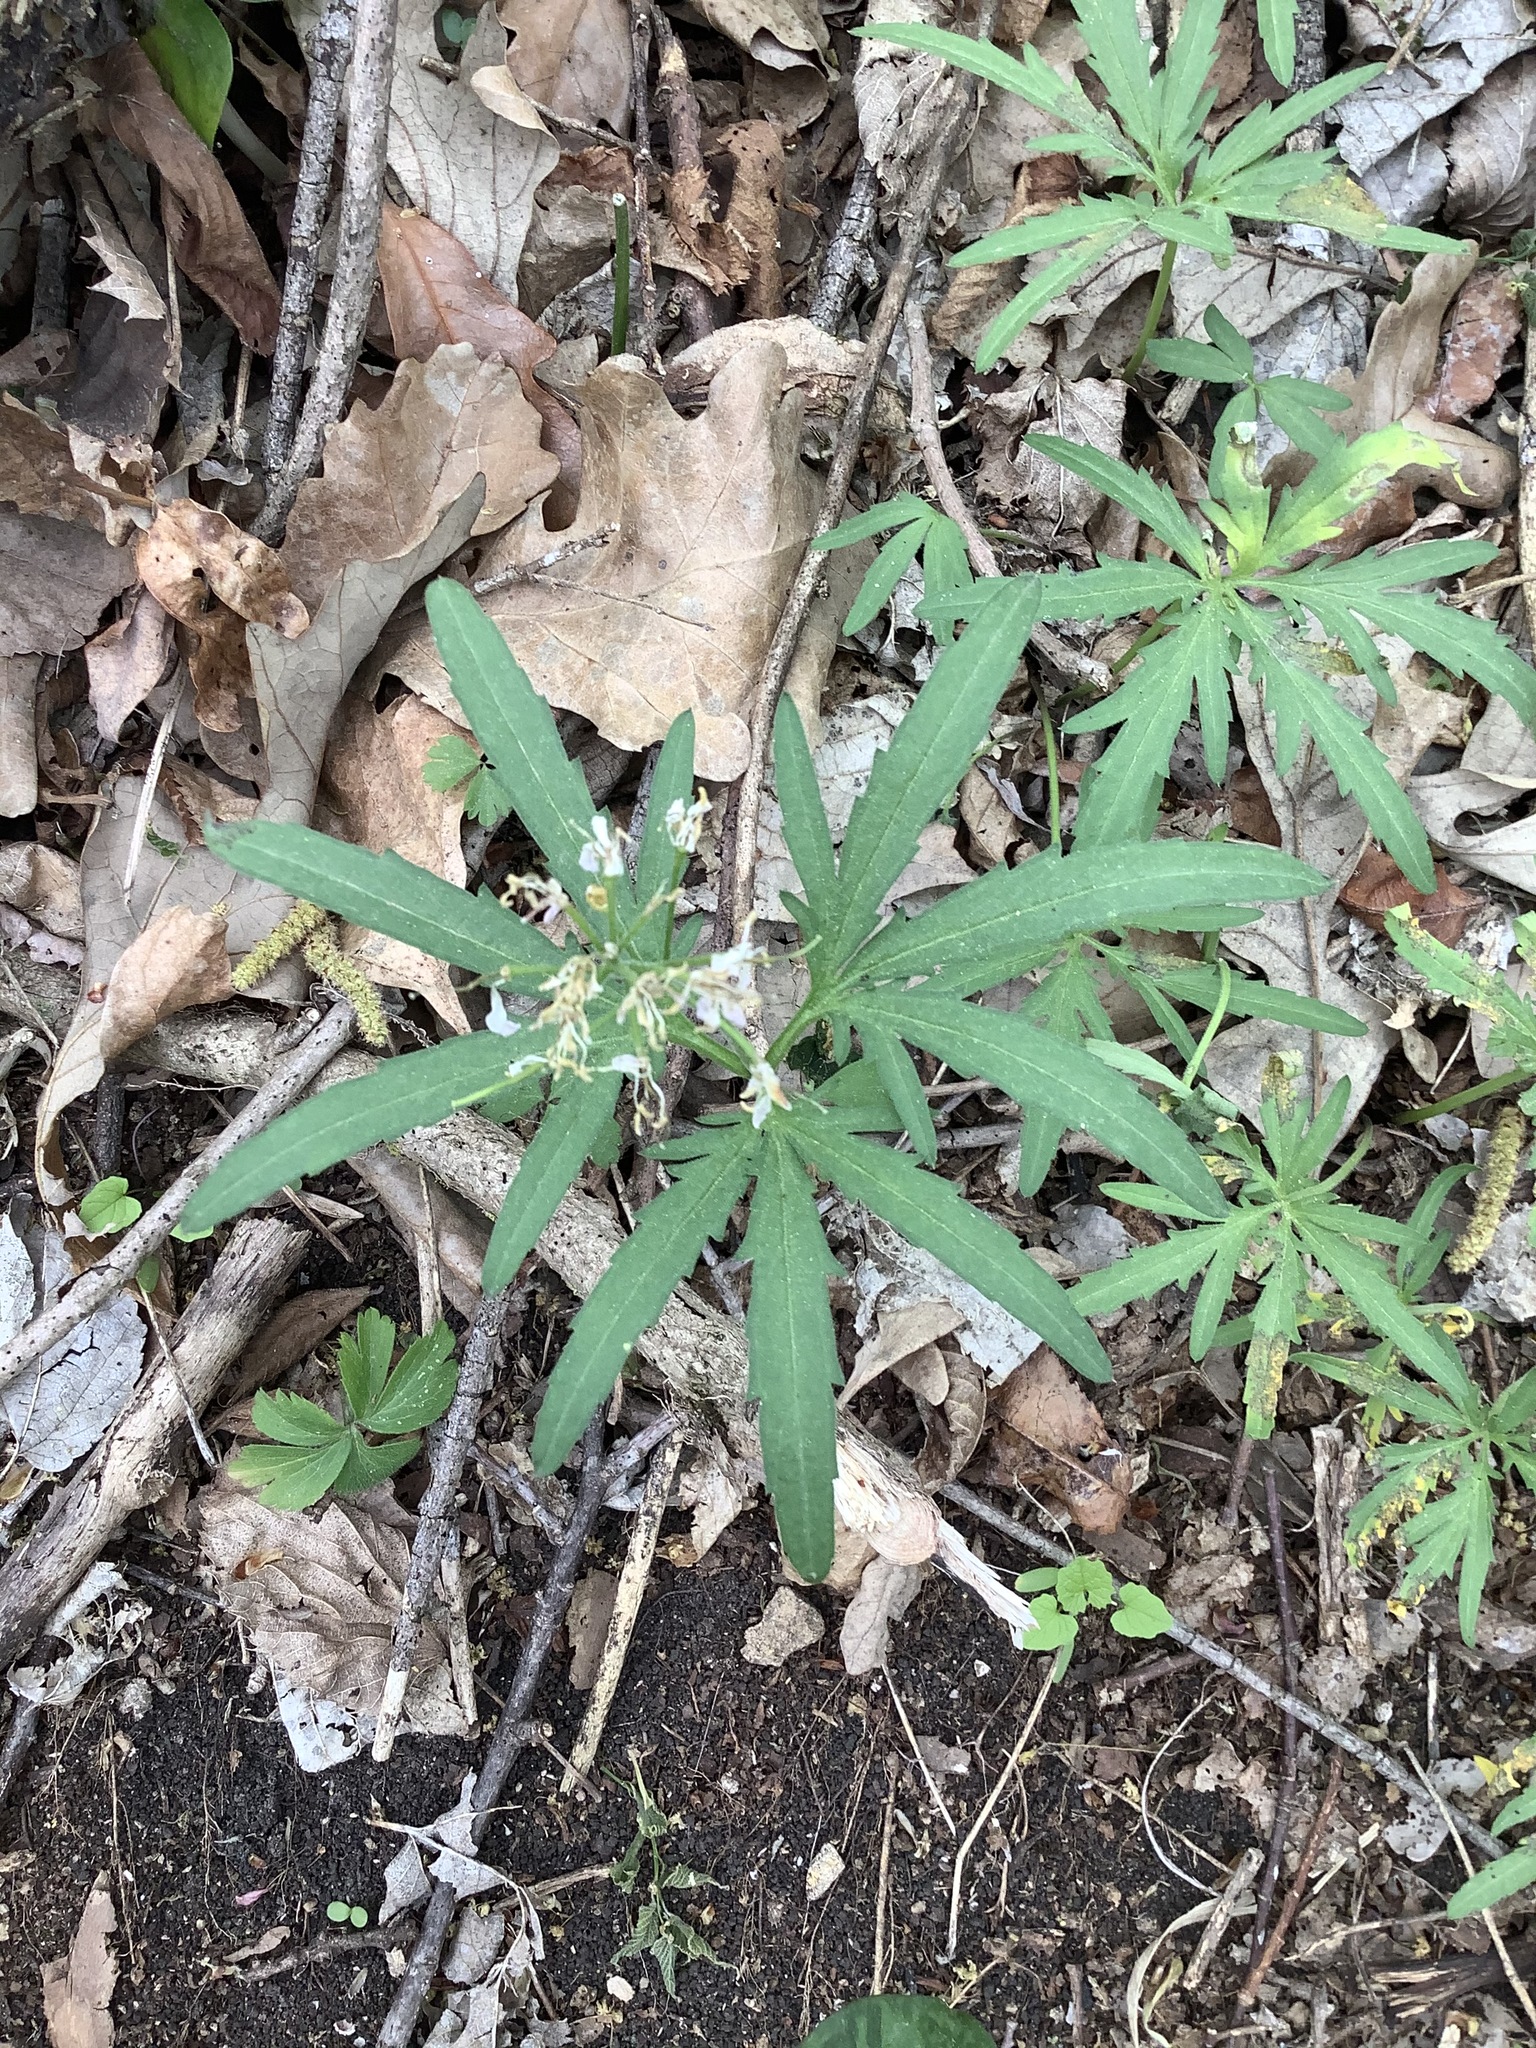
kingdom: Plantae
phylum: Tracheophyta
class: Magnoliopsida
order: Brassicales
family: Brassicaceae
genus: Cardamine
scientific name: Cardamine concatenata
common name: Cut-leaf toothcup
